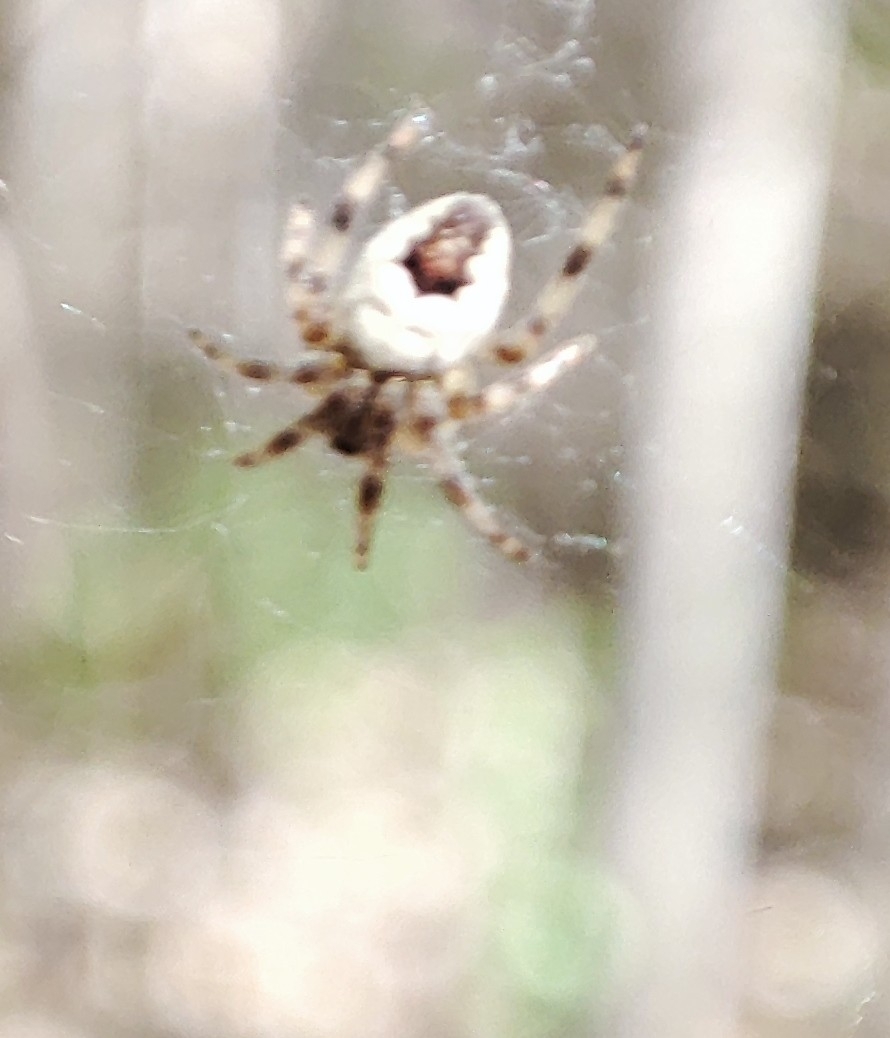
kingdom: Animalia
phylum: Arthropoda
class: Arachnida
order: Araneae
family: Araneidae
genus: Araneus
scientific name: Araneus marmoreus
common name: Marbled orbweaver
